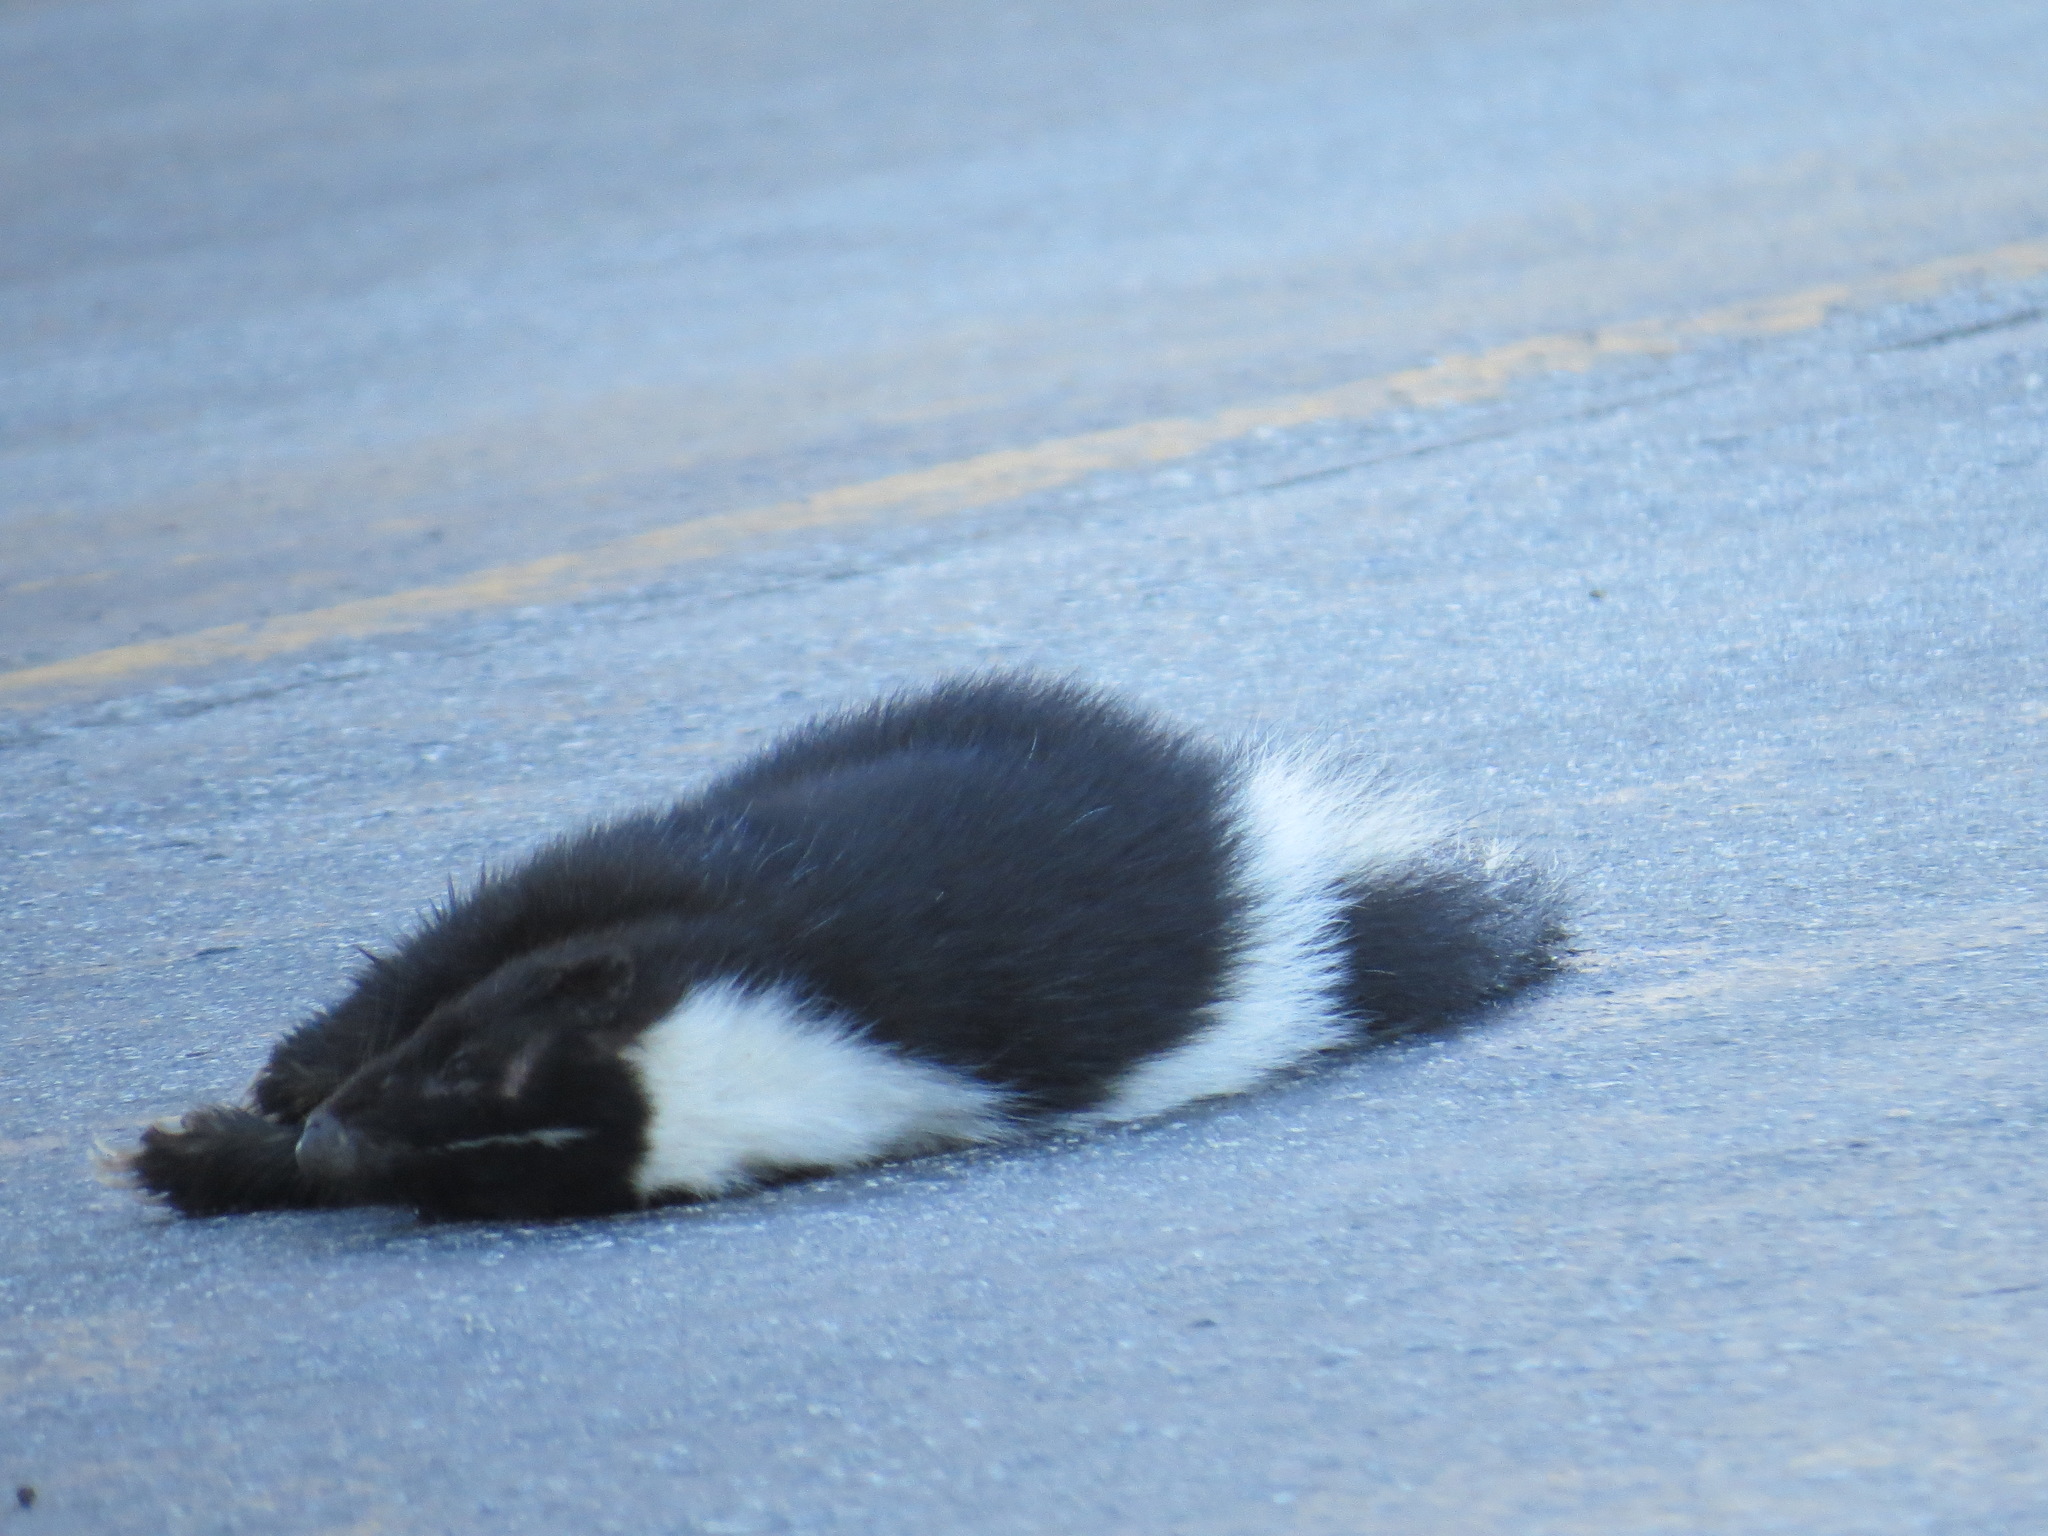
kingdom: Animalia
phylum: Chordata
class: Mammalia
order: Carnivora
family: Mephitidae
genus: Mephitis
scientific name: Mephitis mephitis
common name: Striped skunk
